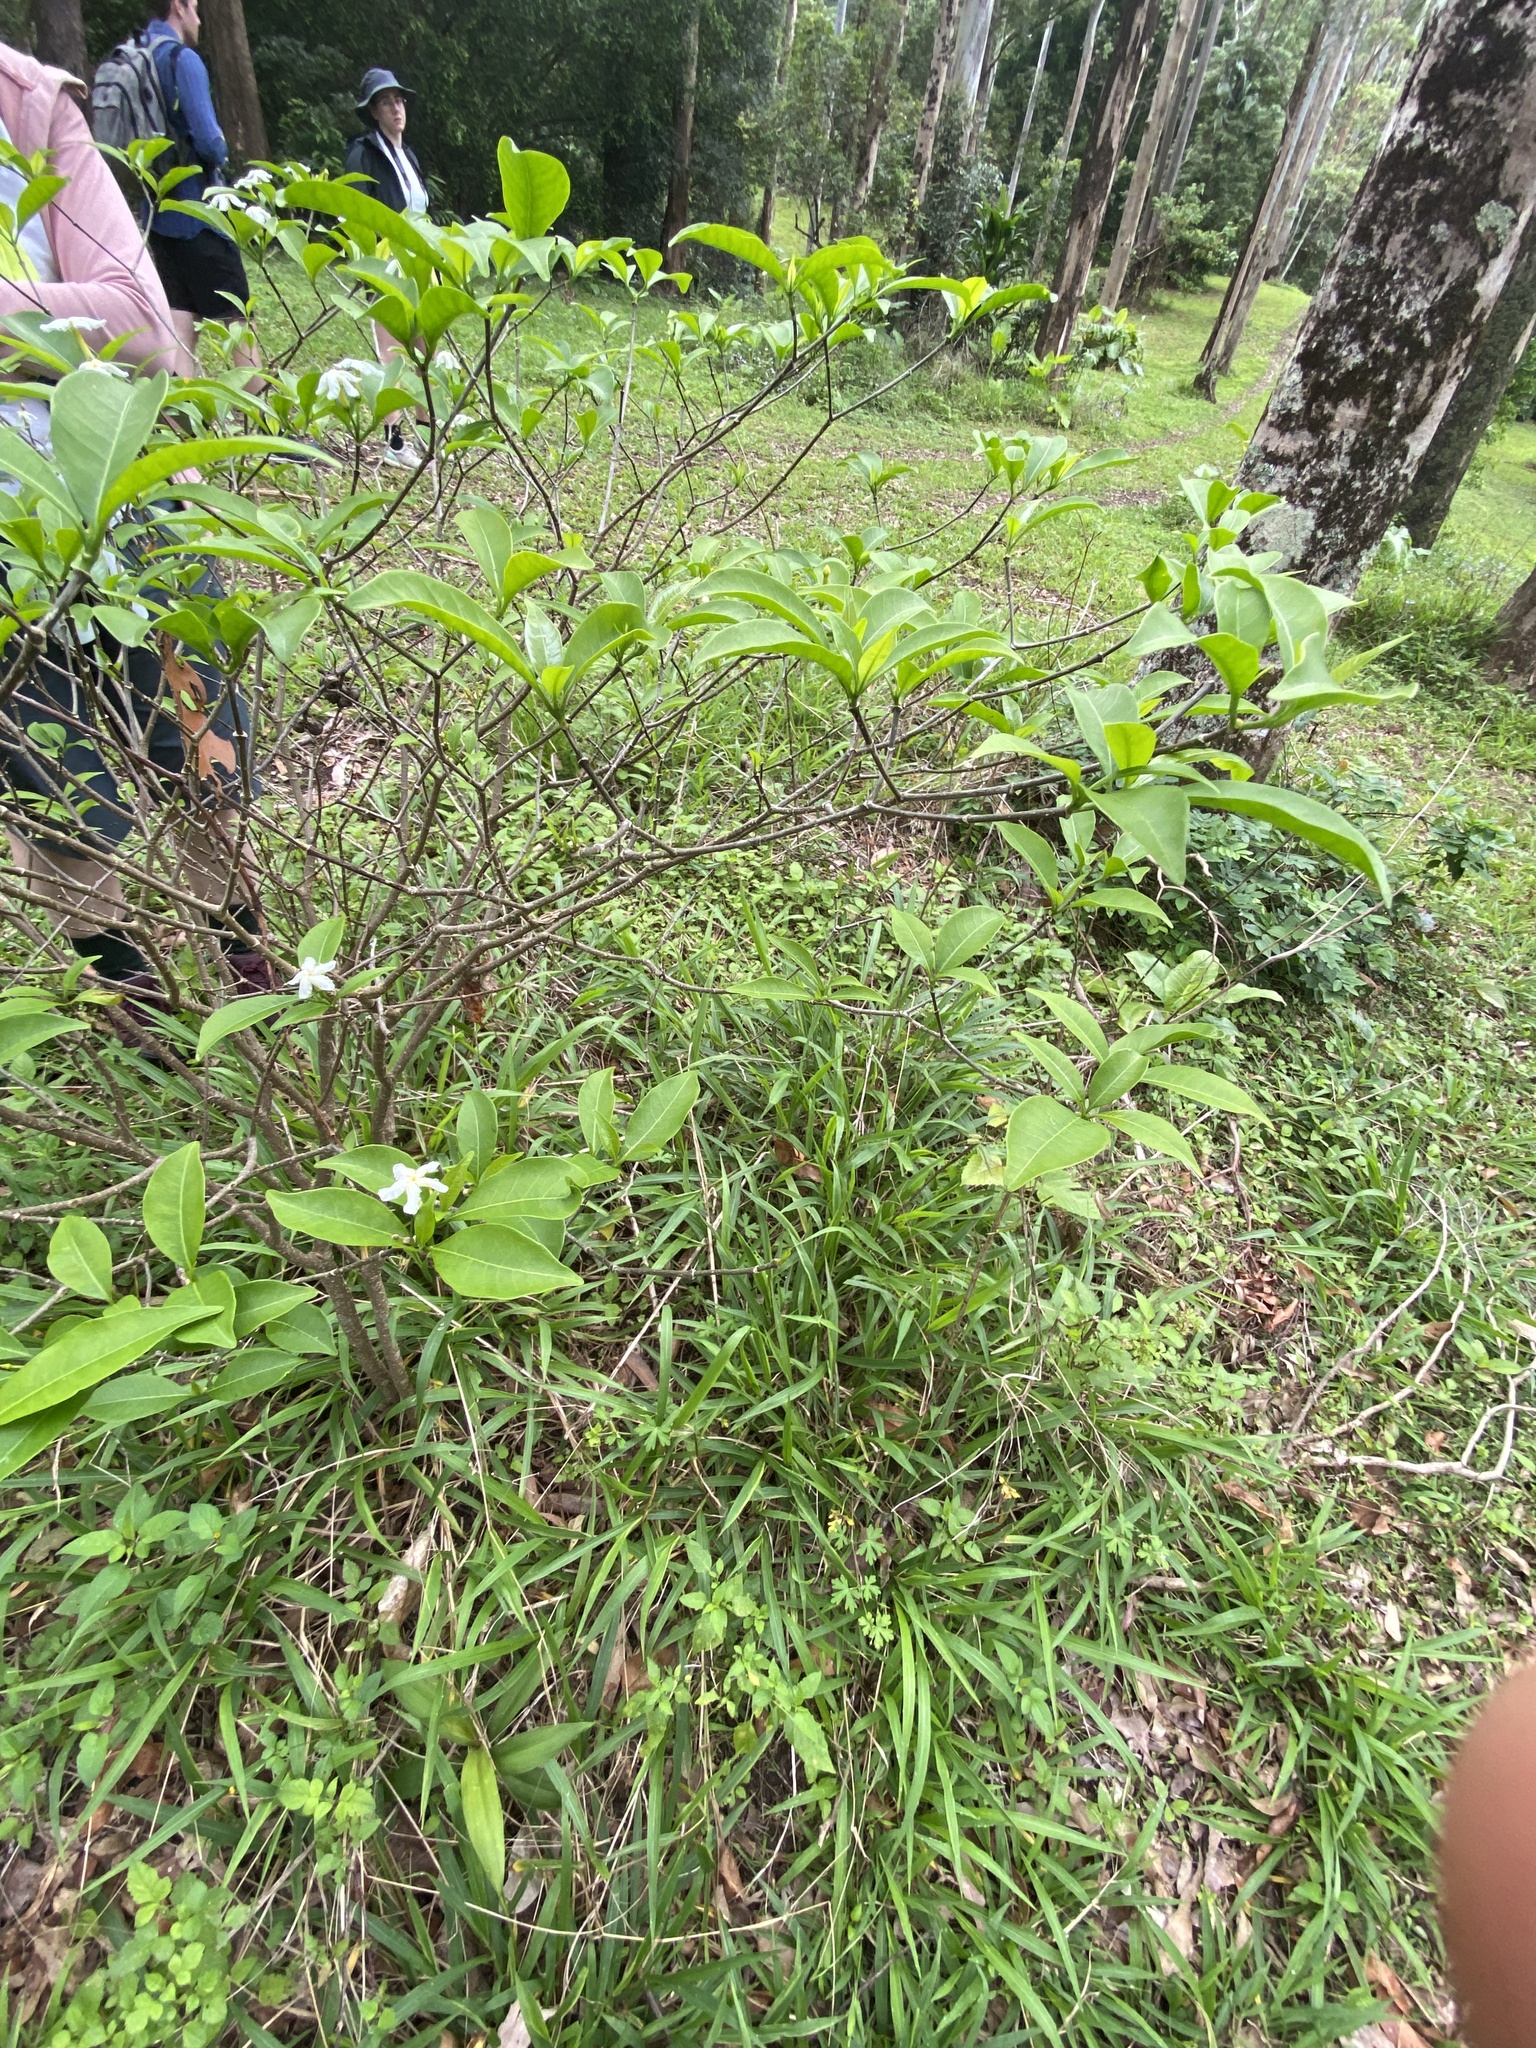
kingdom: Plantae
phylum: Tracheophyta
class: Magnoliopsida
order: Gentianales
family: Apocynaceae
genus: Tabernaemontana
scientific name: Tabernaemontana pandacaqui
